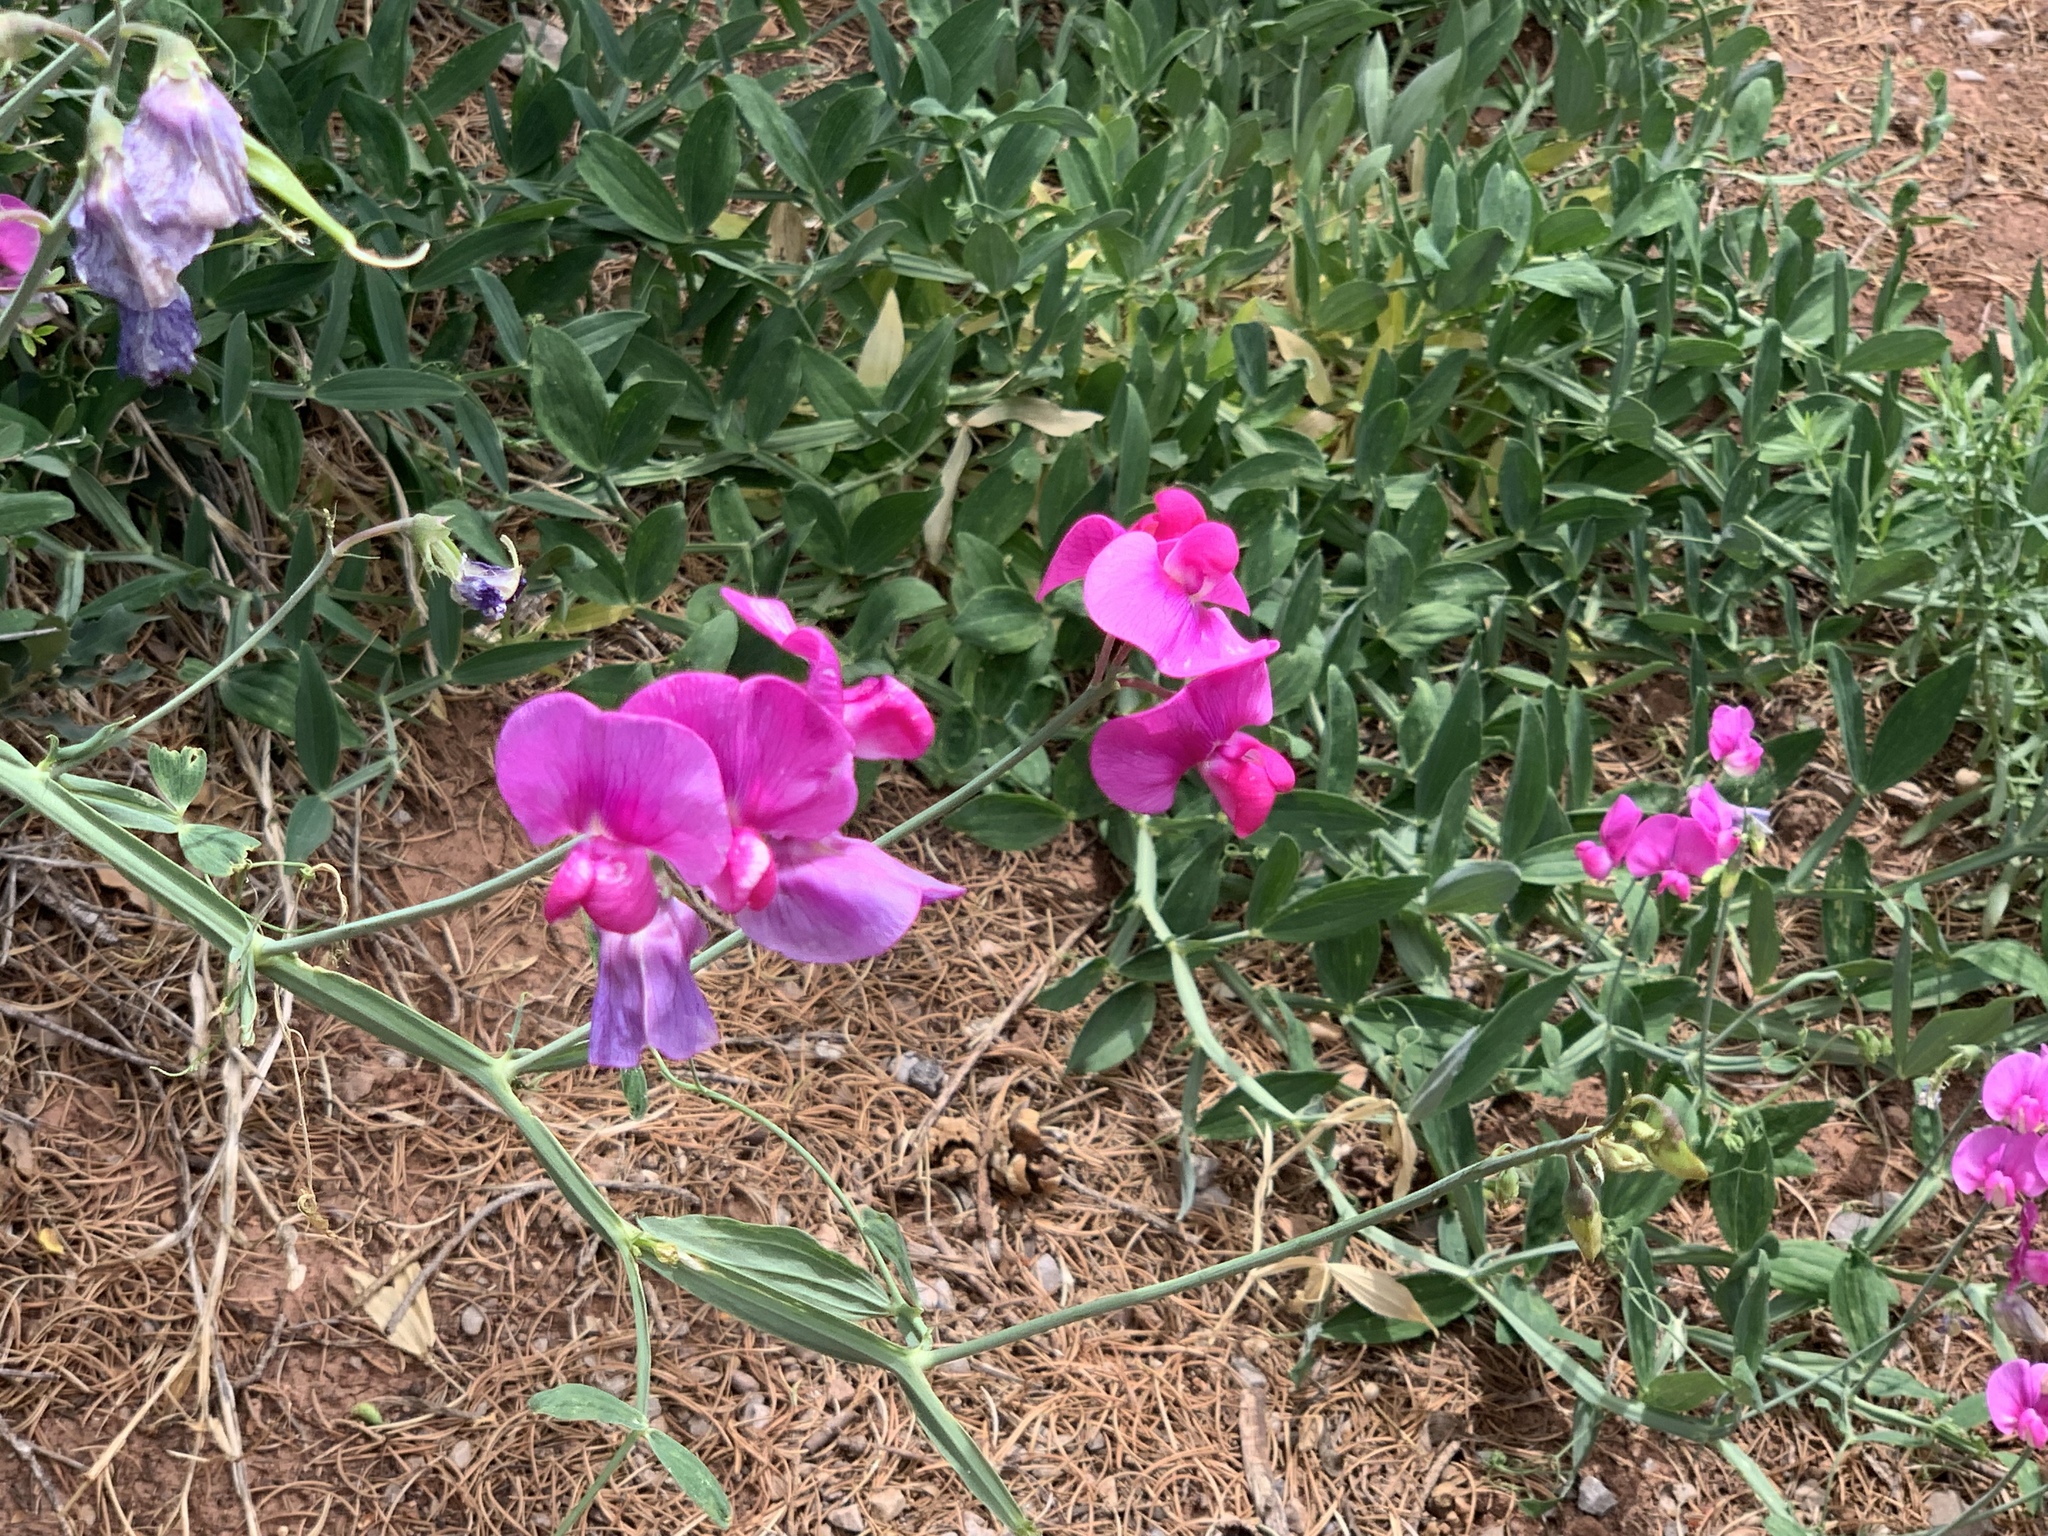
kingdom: Plantae
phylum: Tracheophyta
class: Magnoliopsida
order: Fabales
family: Fabaceae
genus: Lathyrus
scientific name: Lathyrus latifolius
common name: Perennial pea
